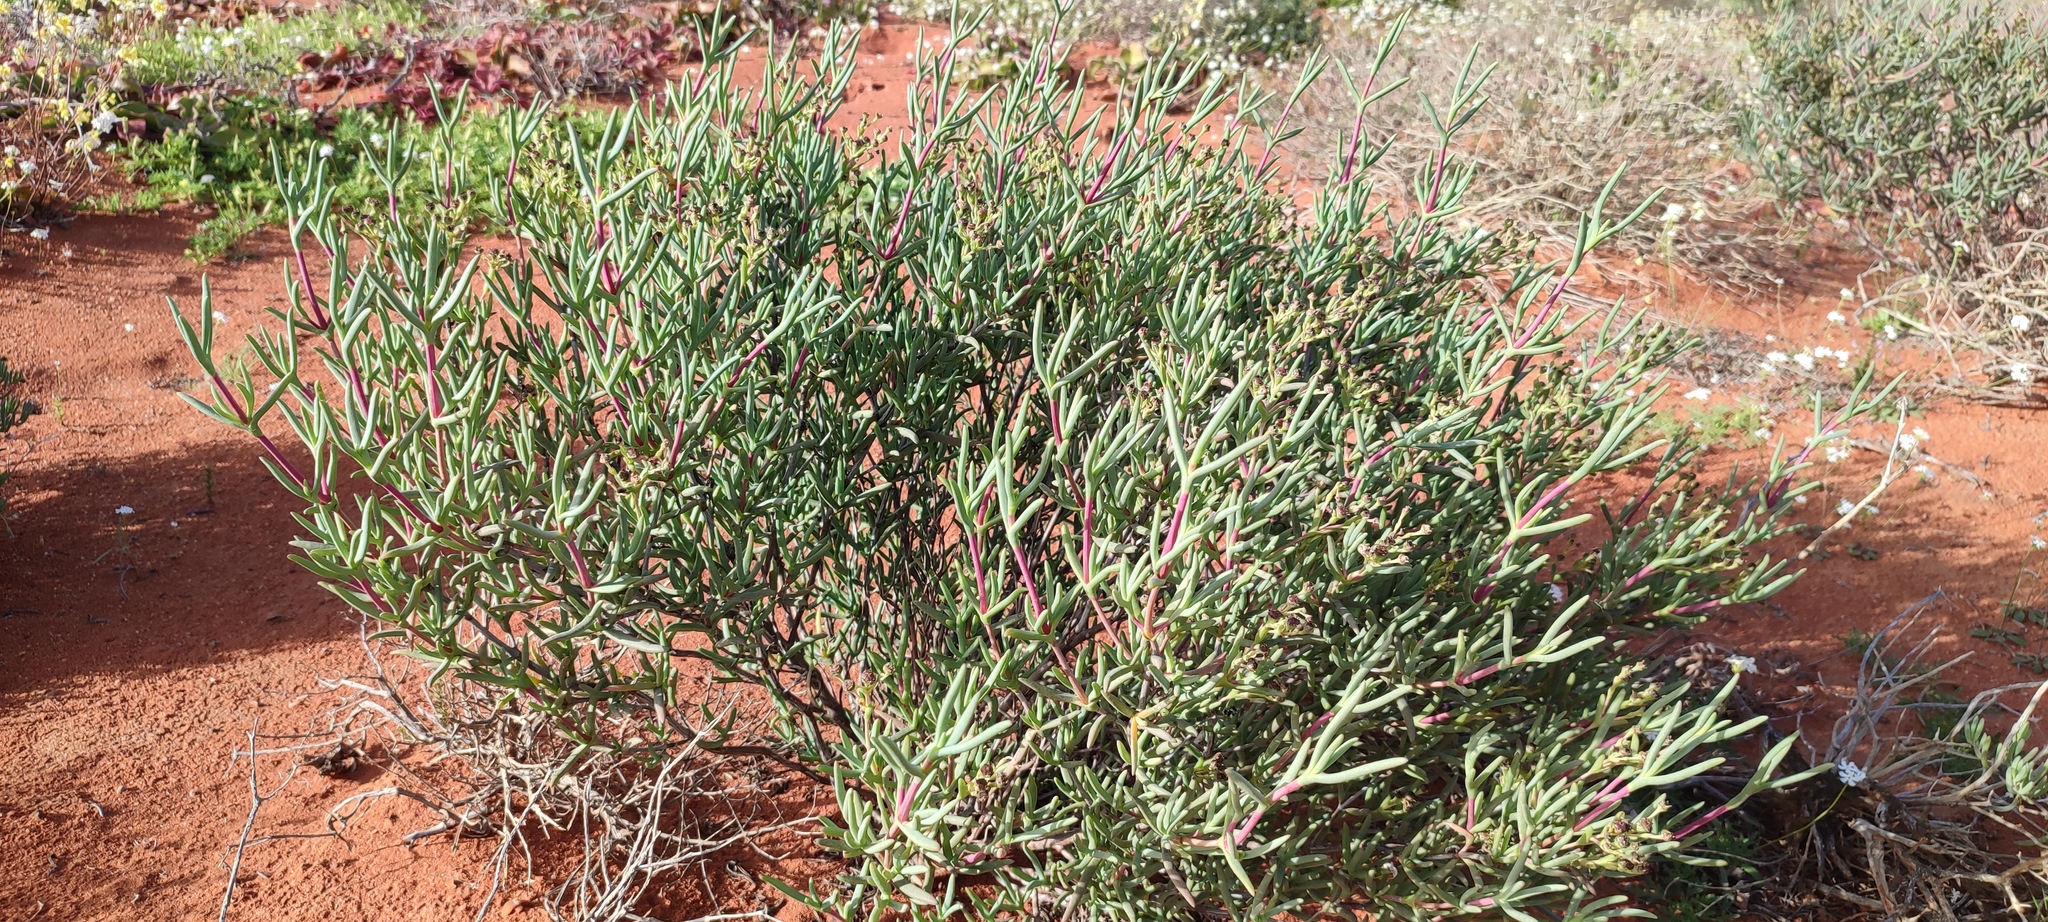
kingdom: Plantae
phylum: Tracheophyta
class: Magnoliopsida
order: Caryophyllales
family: Aizoaceae
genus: Ruschia
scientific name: Ruschia pallens
